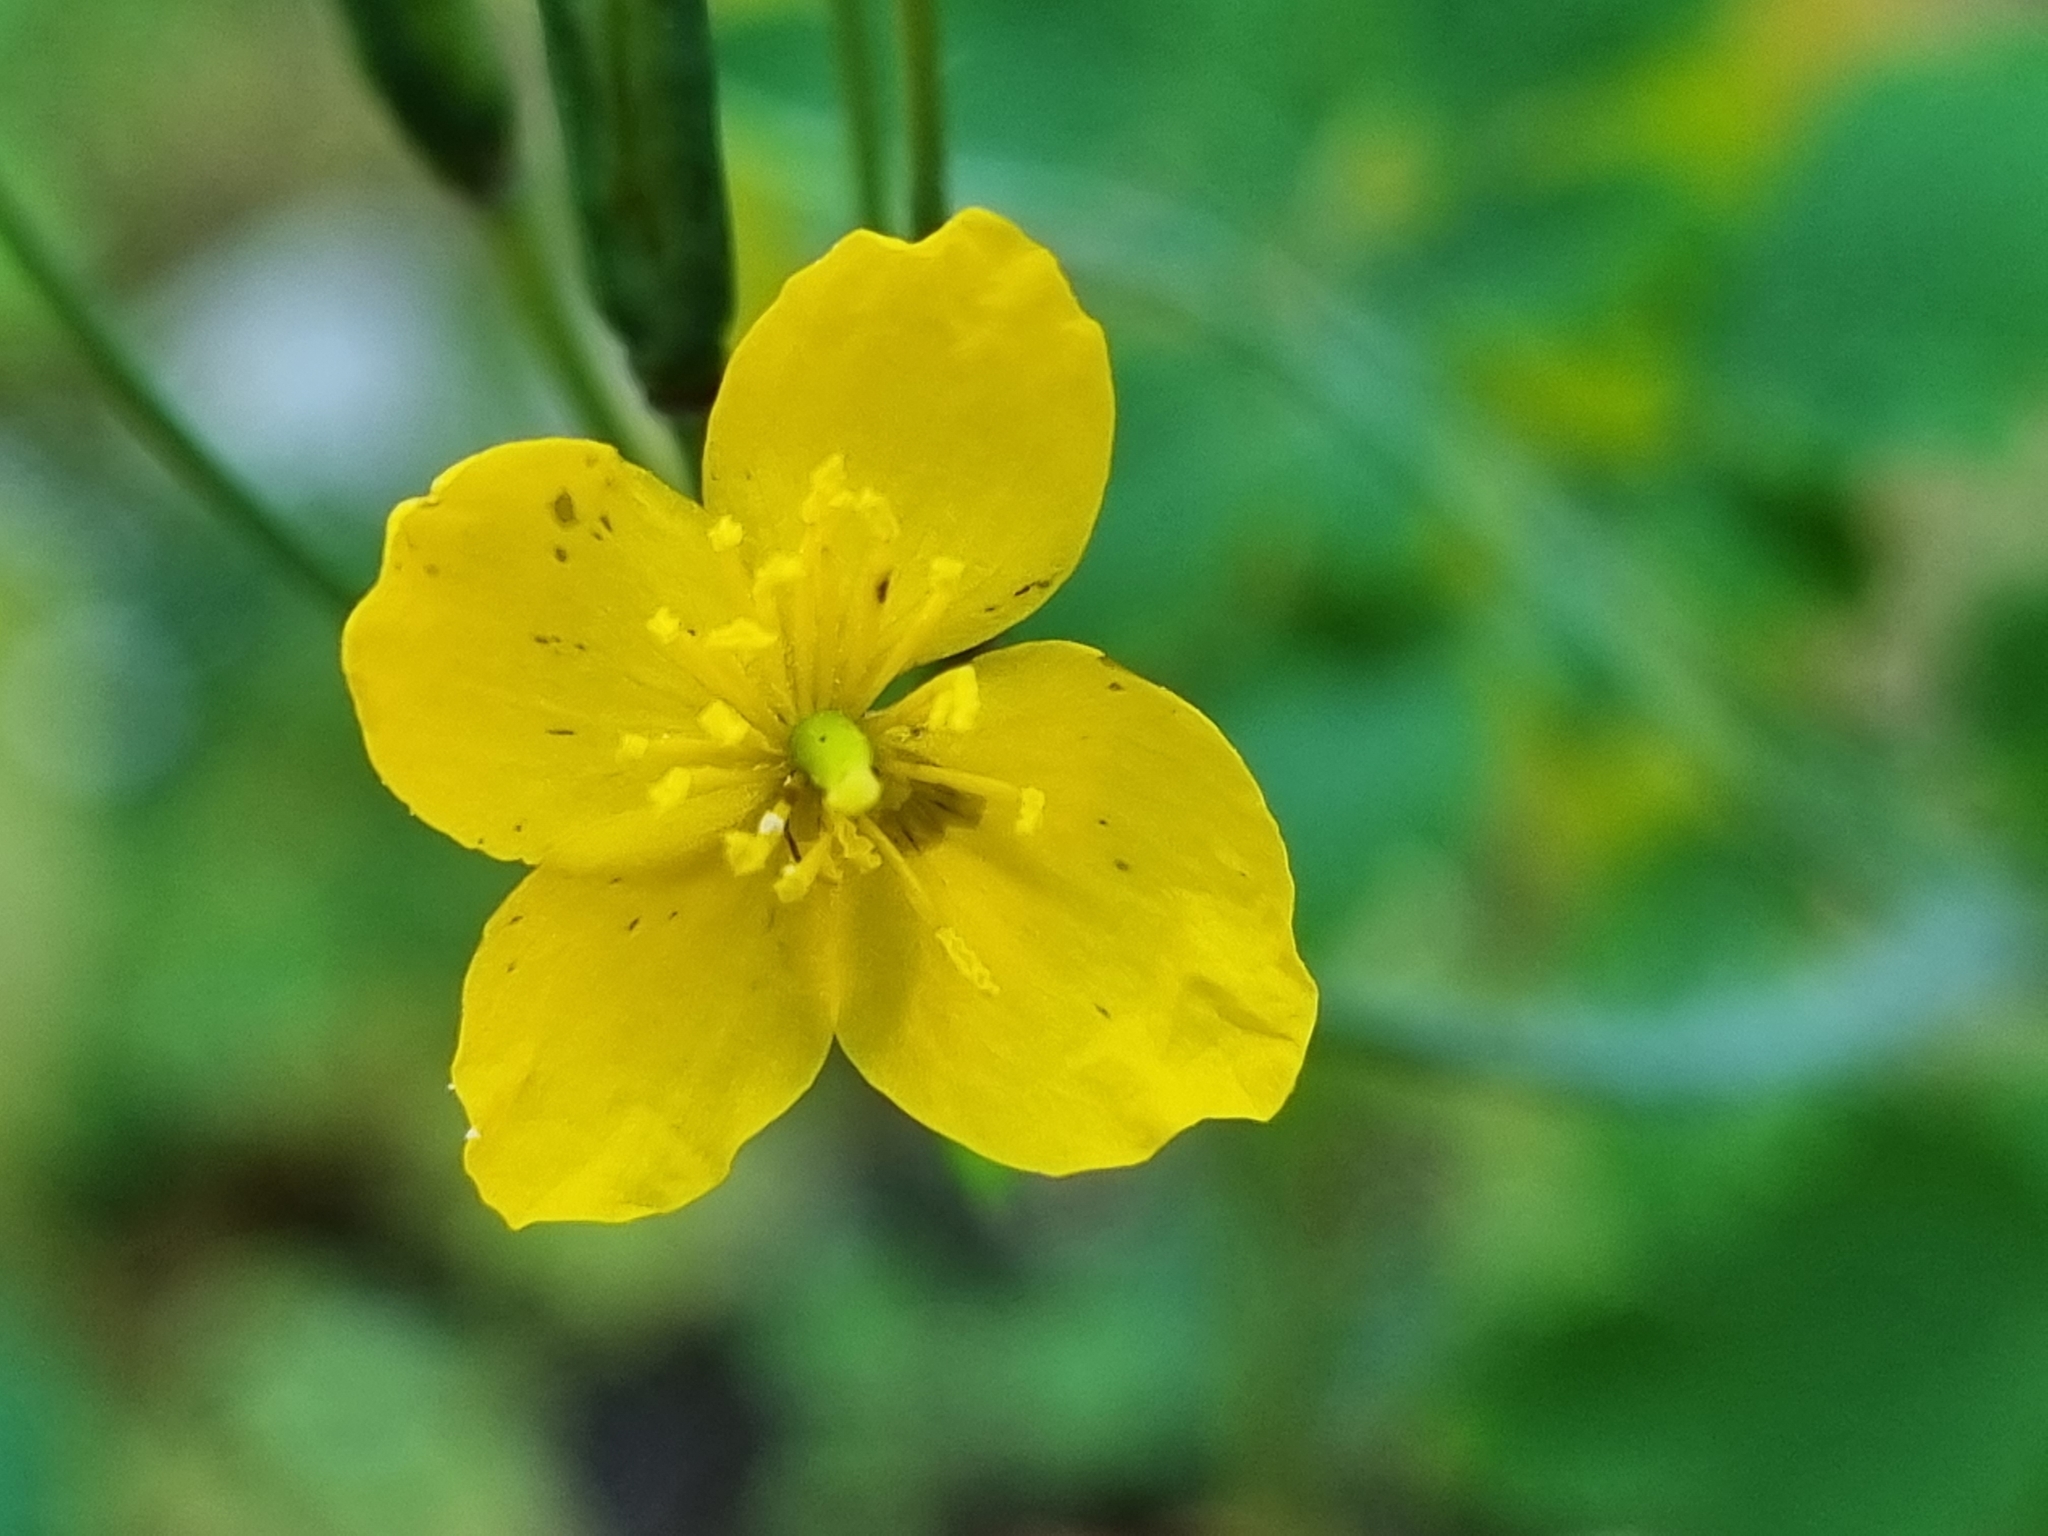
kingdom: Plantae
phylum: Tracheophyta
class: Magnoliopsida
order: Ranunculales
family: Papaveraceae
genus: Chelidonium
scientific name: Chelidonium majus
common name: Greater celandine
